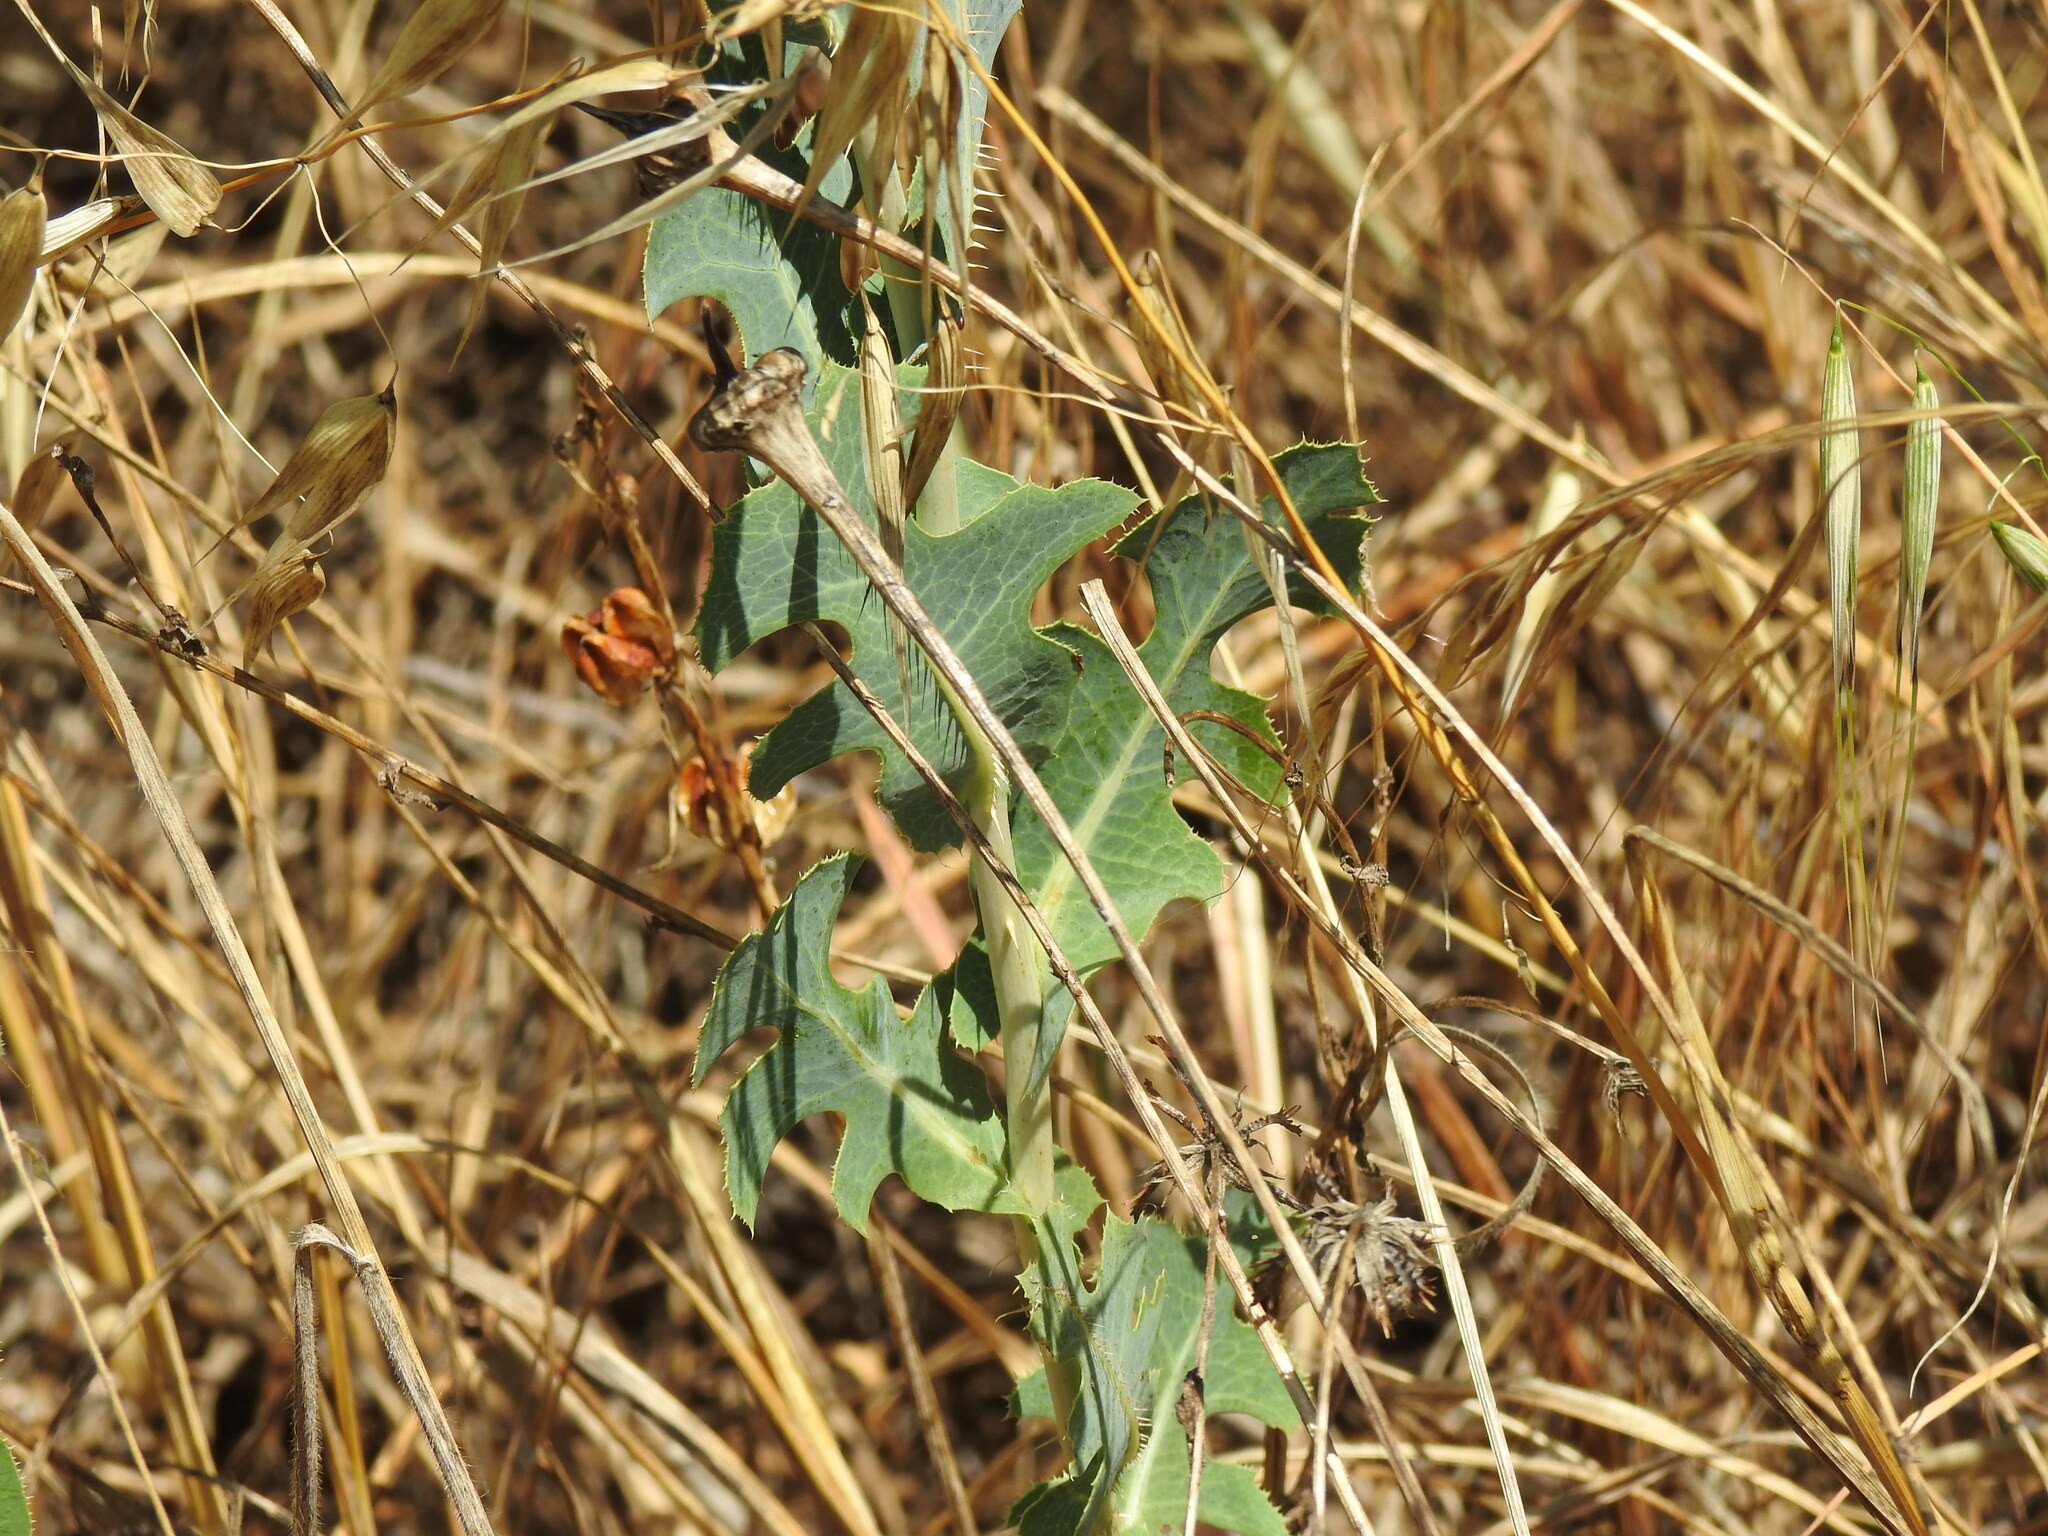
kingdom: Plantae
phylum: Tracheophyta
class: Magnoliopsida
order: Asterales
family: Asteraceae
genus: Lactuca
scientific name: Lactuca serriola
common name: Prickly lettuce
